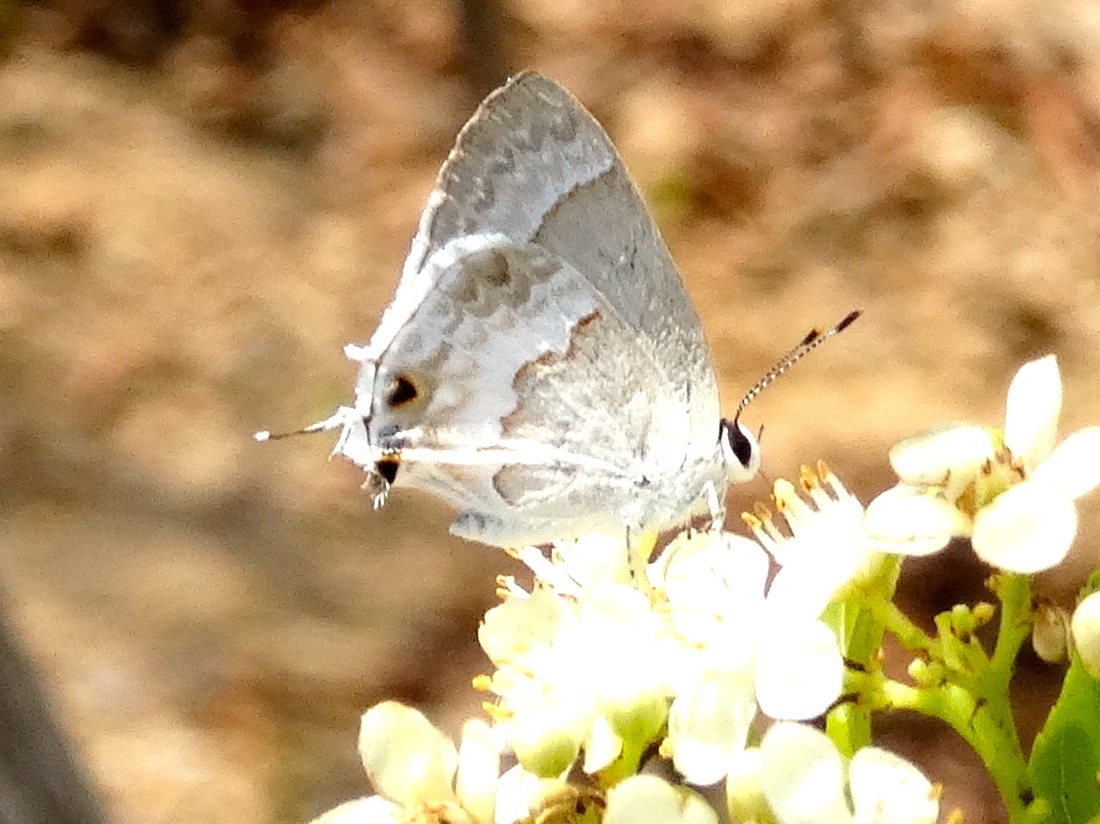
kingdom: Animalia
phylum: Arthropoda
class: Insecta
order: Lepidoptera
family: Lycaenidae
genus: Strymon
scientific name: Strymon albata
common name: White scrub-hairstreak
